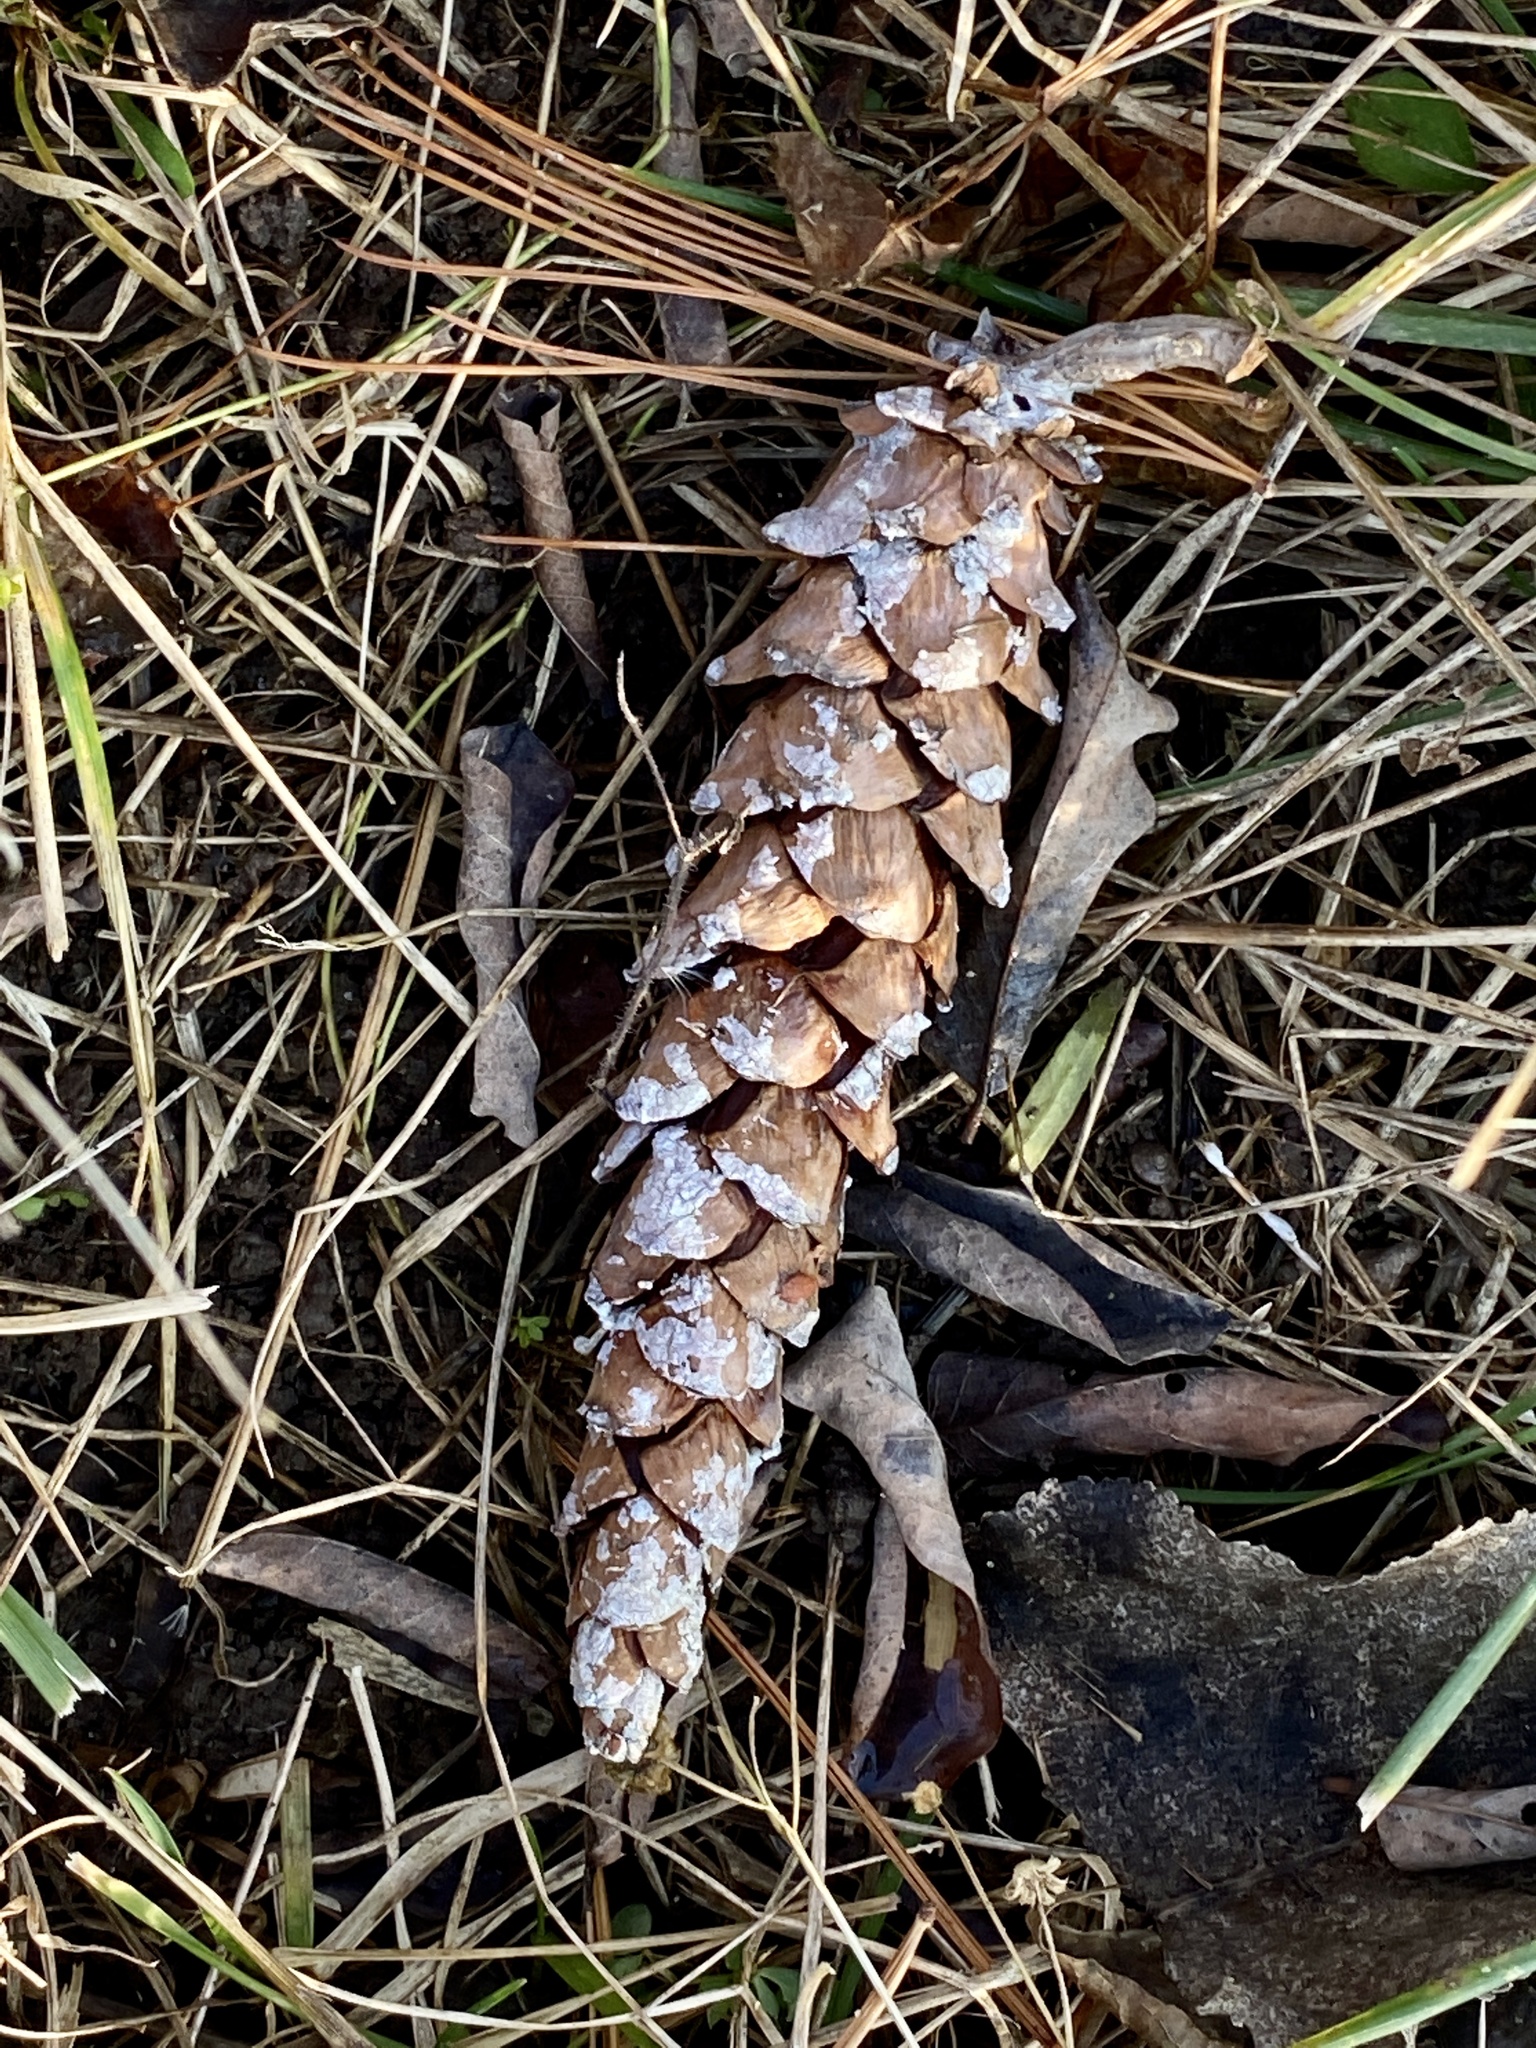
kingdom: Plantae
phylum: Tracheophyta
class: Pinopsida
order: Pinales
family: Pinaceae
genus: Pinus
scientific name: Pinus strobus
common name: Weymouth pine
